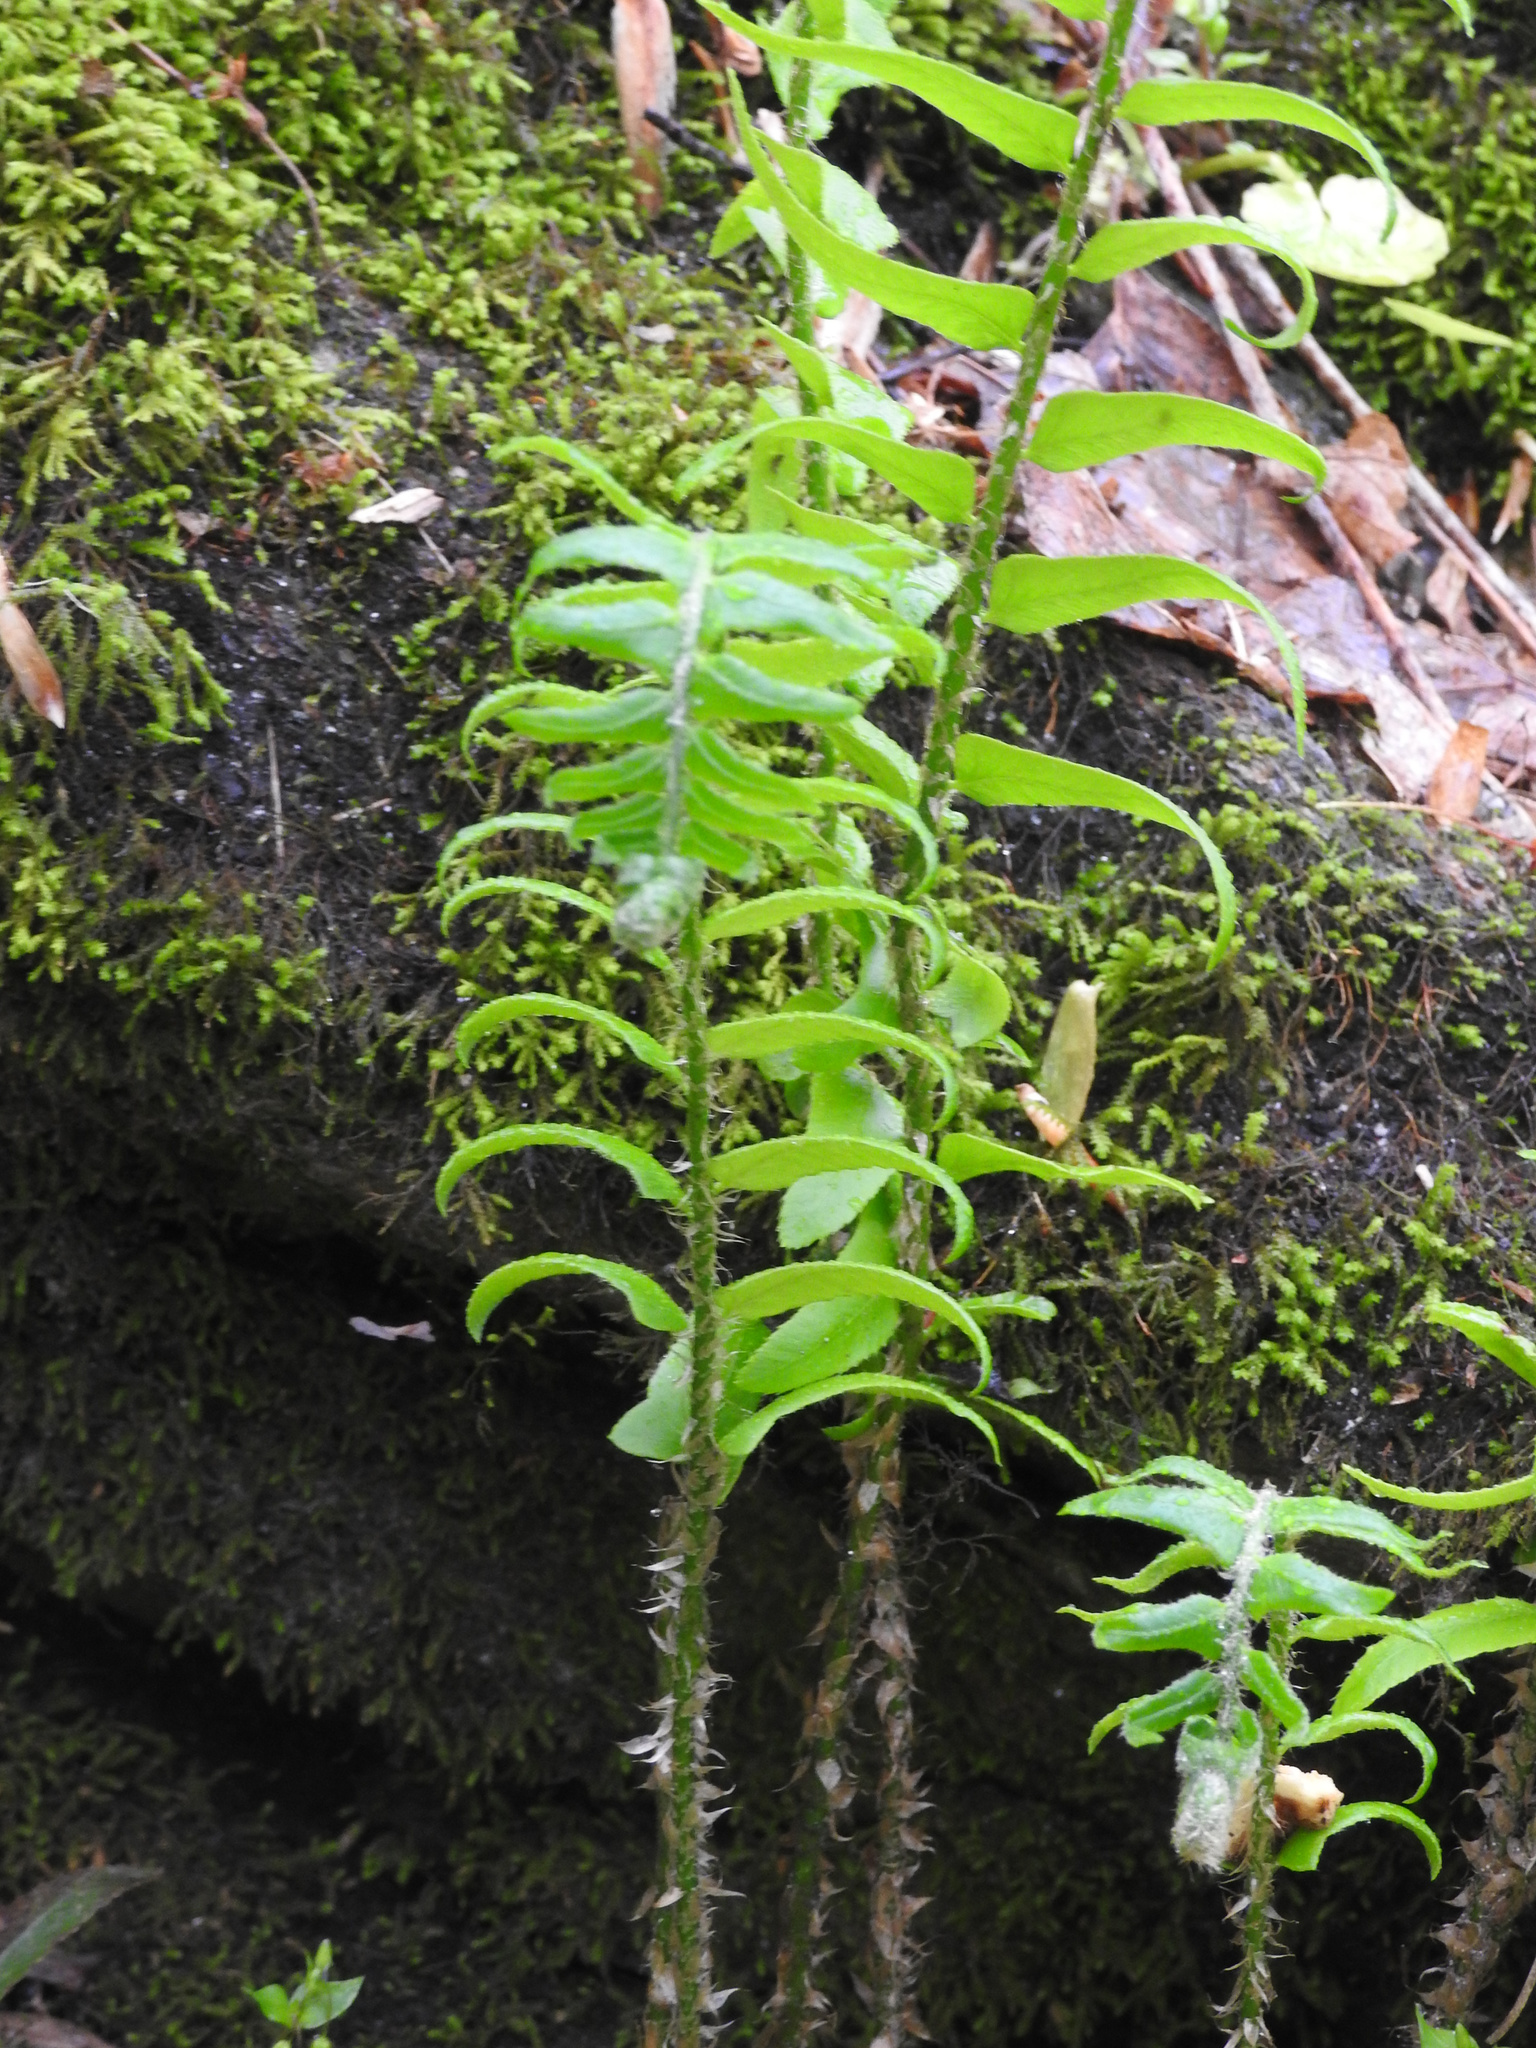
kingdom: Plantae
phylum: Tracheophyta
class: Polypodiopsida
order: Polypodiales
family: Dryopteridaceae
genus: Polystichum
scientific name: Polystichum acrostichoides
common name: Christmas fern
